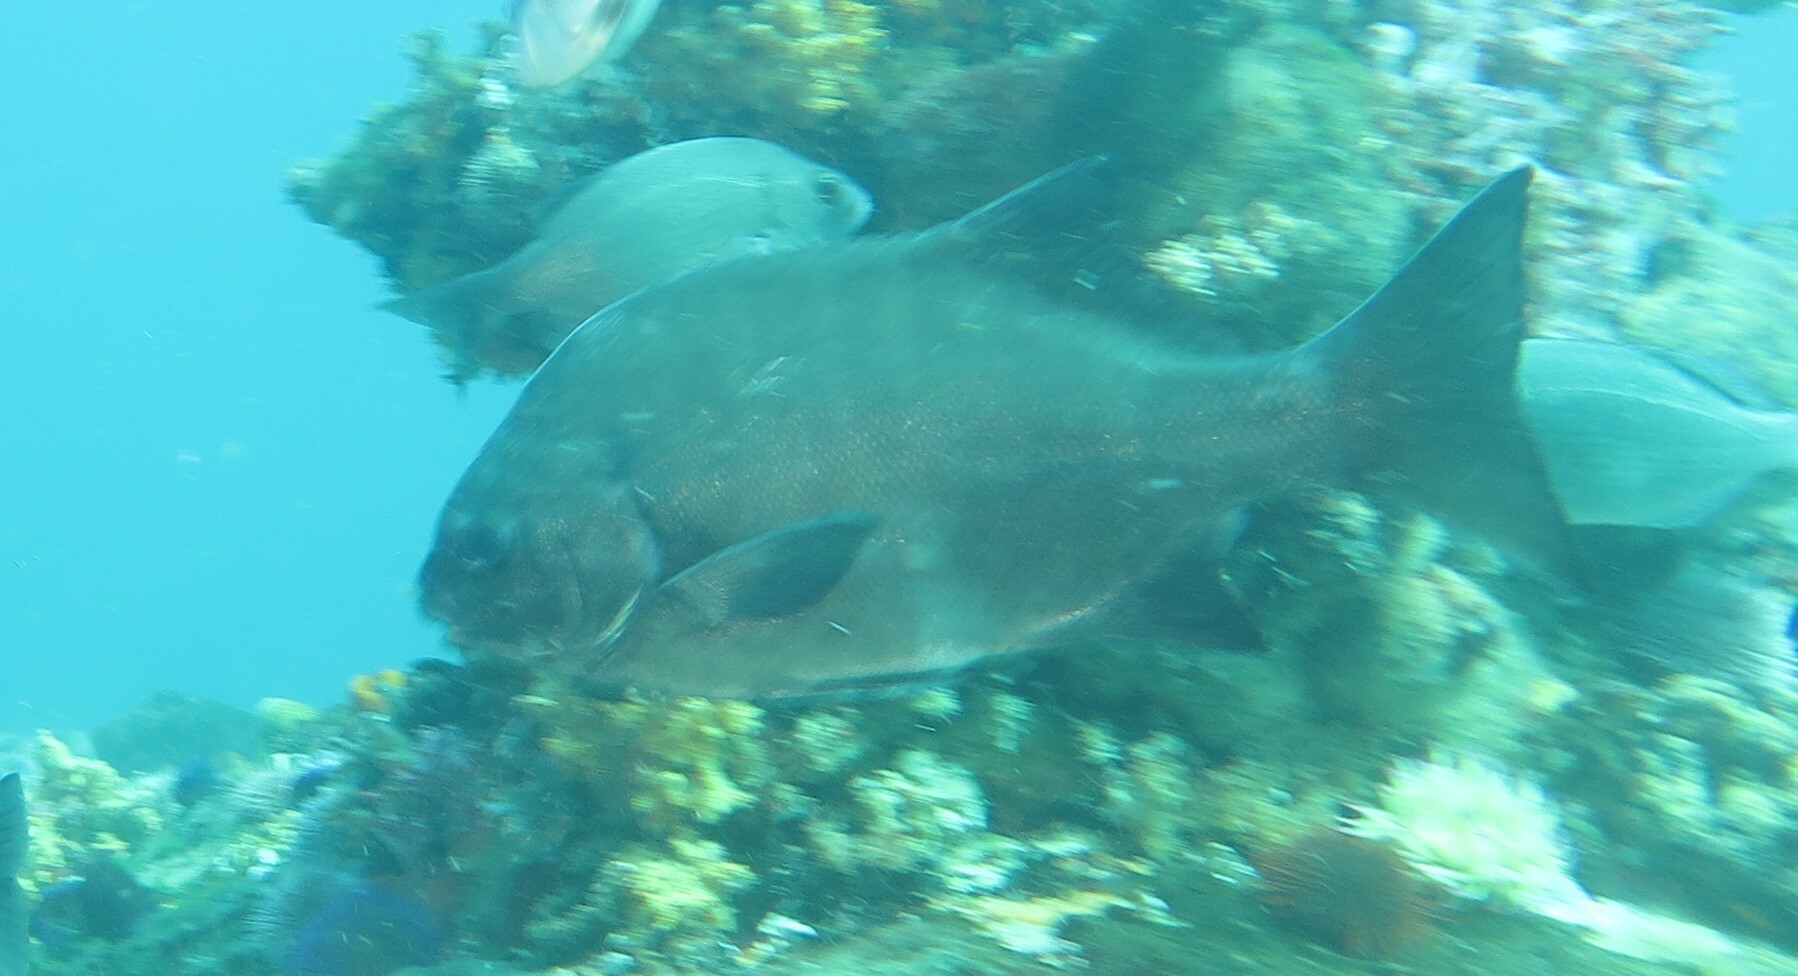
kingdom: Animalia
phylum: Chordata
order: Perciformes
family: Dichistiidae
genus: Dichistius
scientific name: Dichistius capensis
